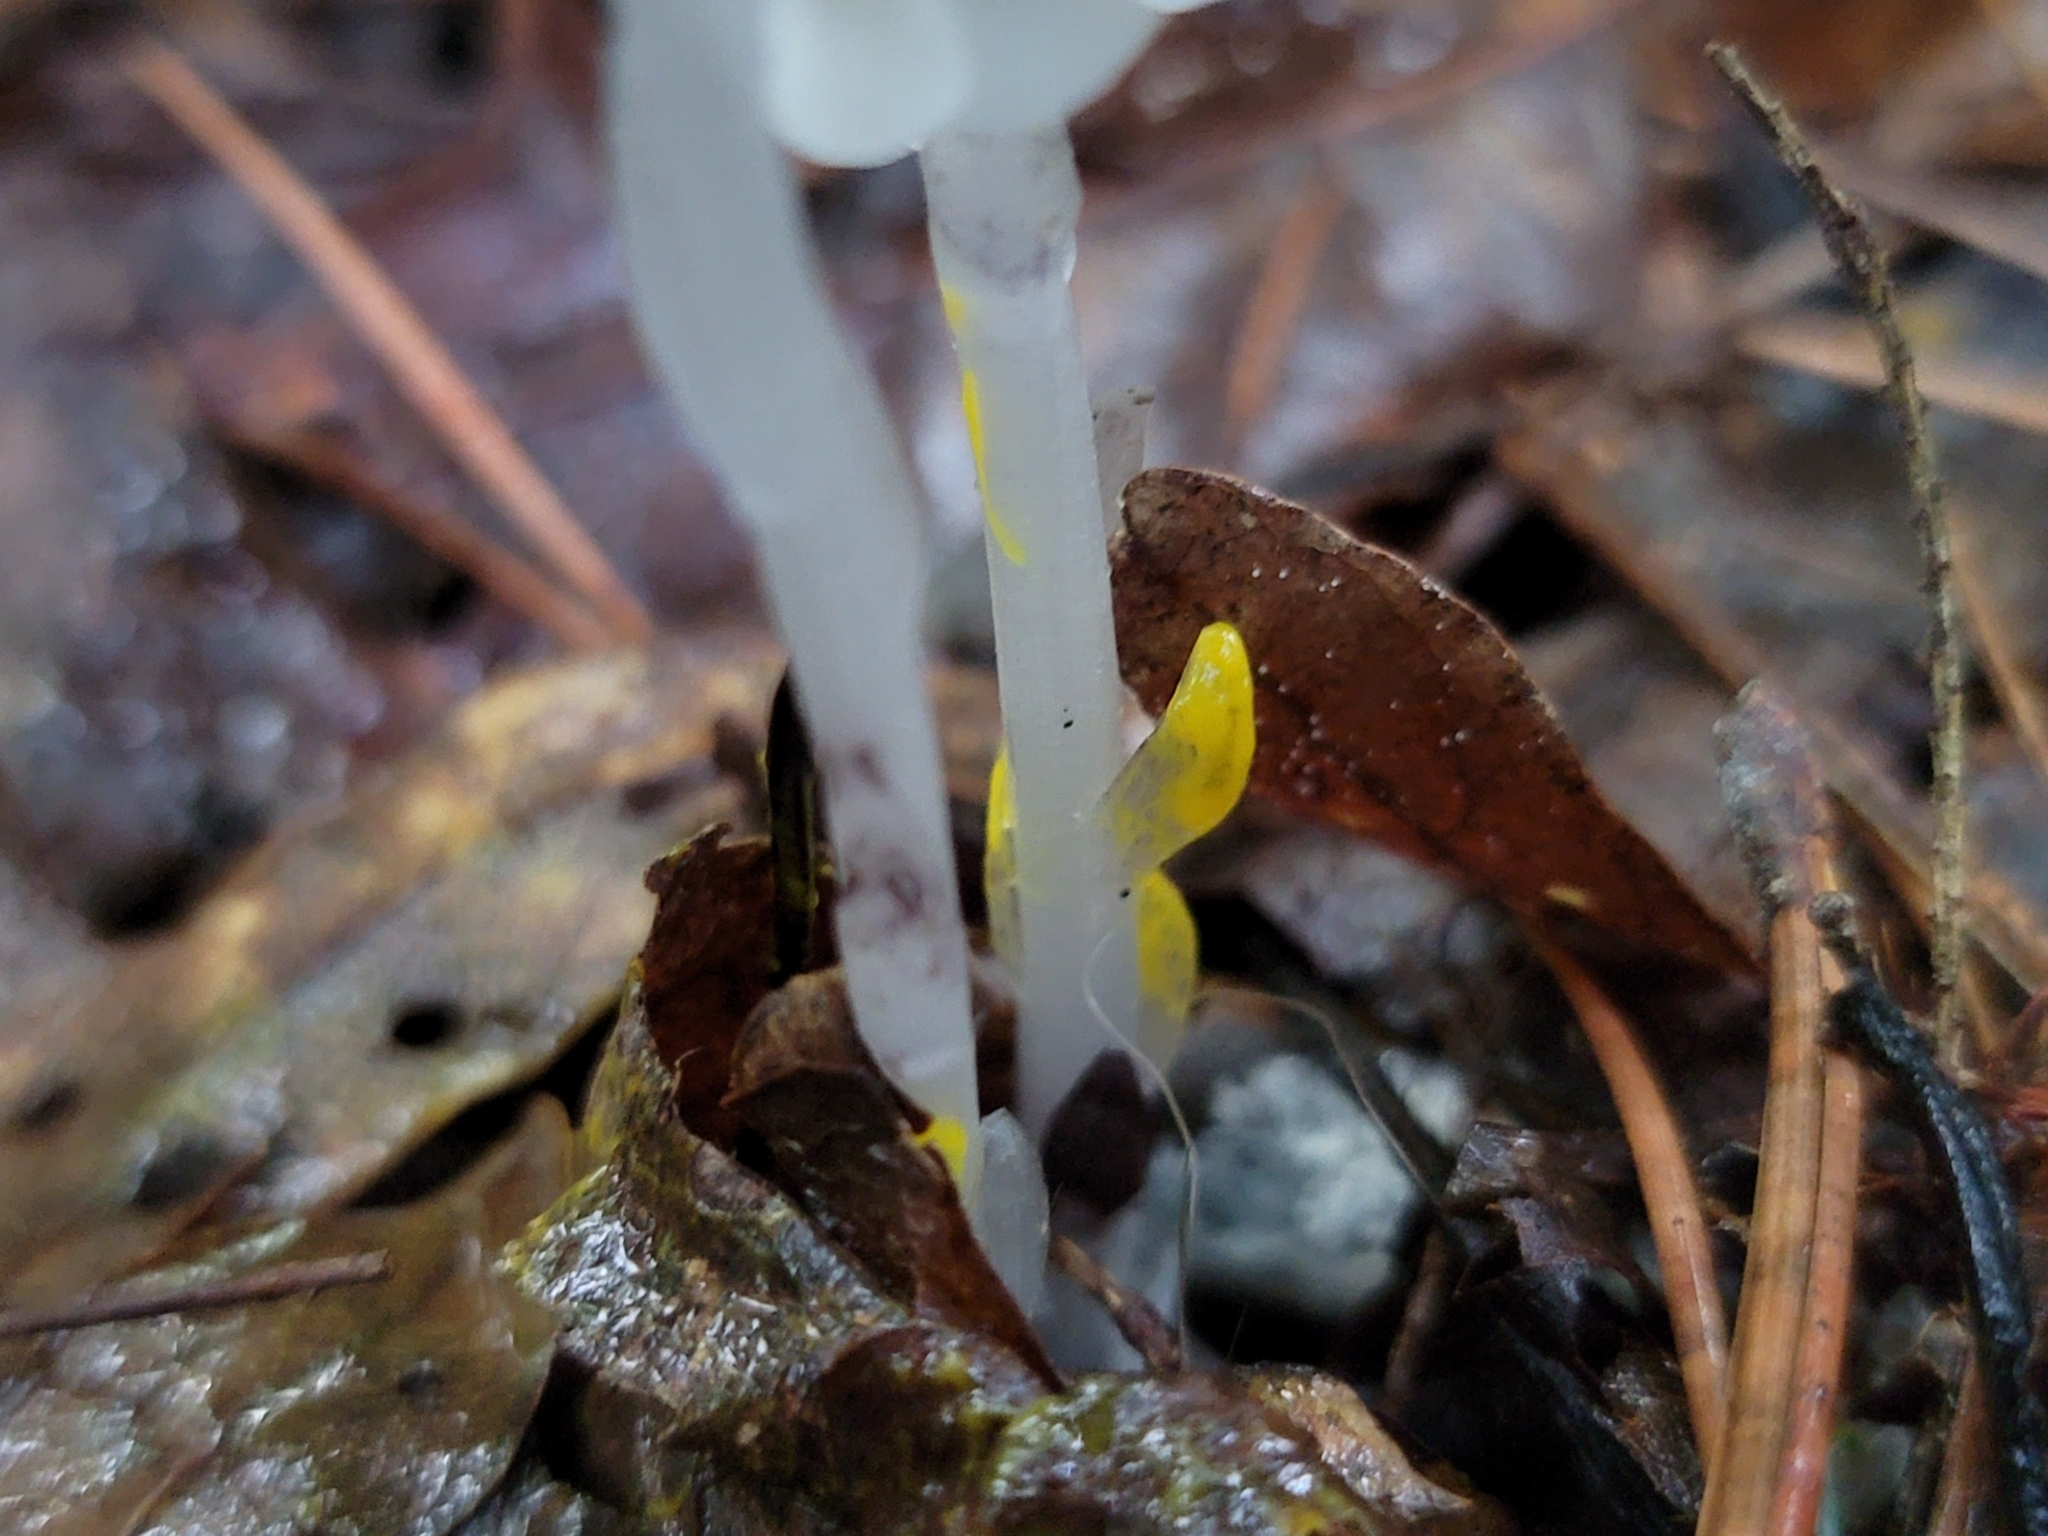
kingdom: Plantae
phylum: Tracheophyta
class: Magnoliopsida
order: Ericales
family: Ericaceae
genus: Monotropa
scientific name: Monotropa uniflora
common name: Convulsion root
